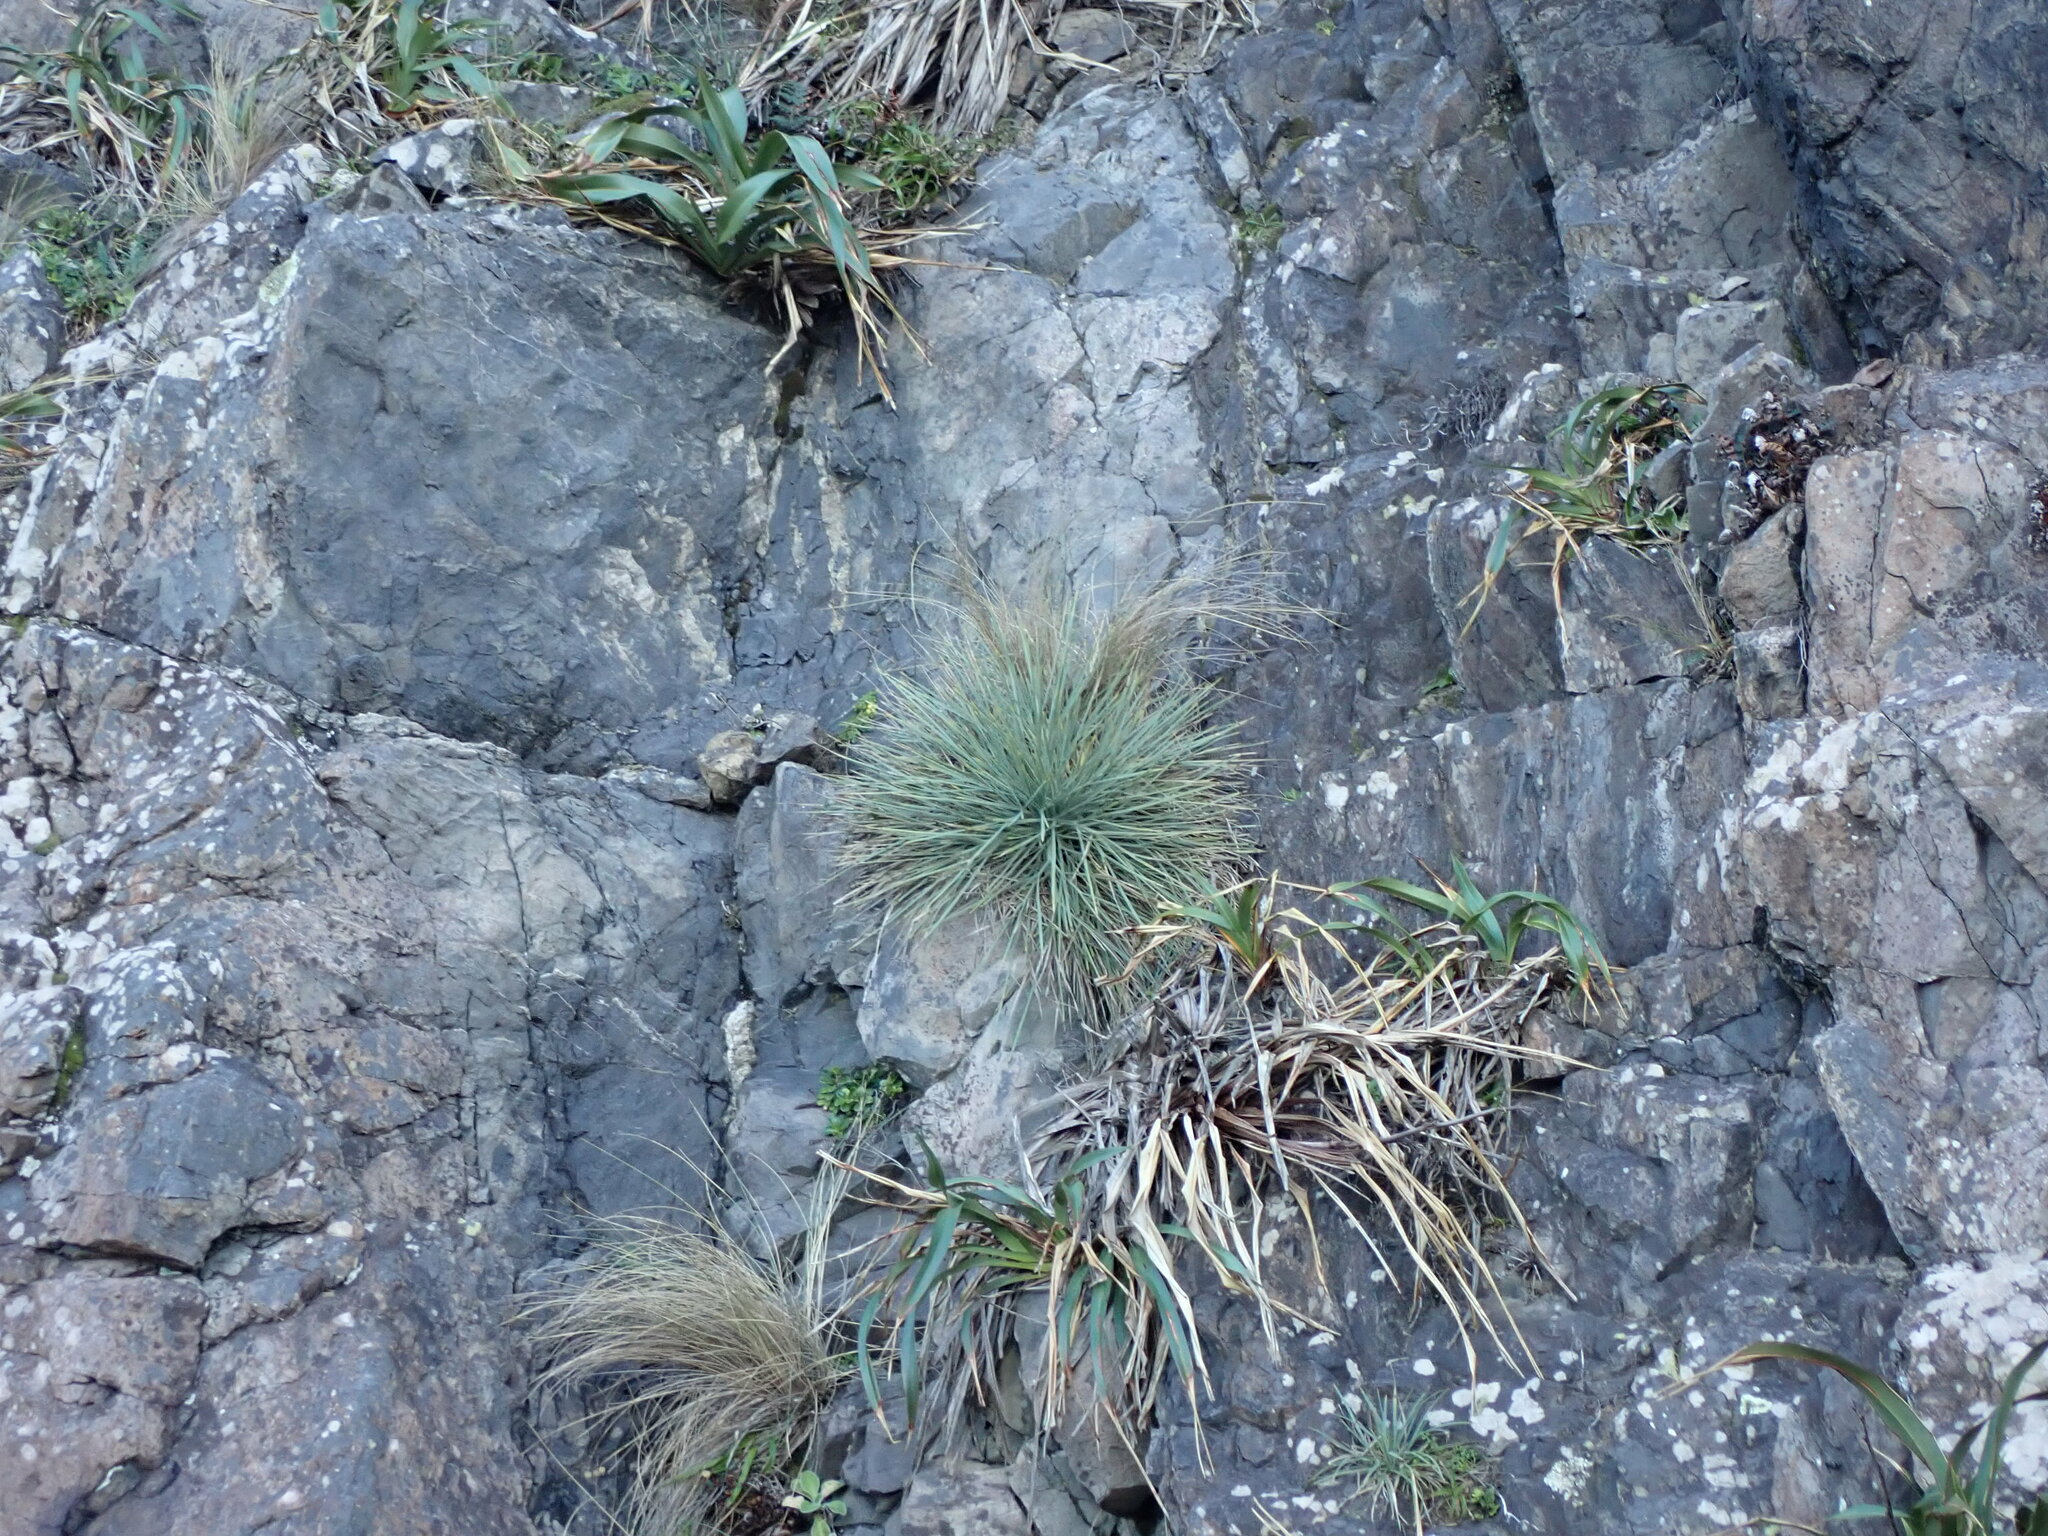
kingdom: Plantae
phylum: Tracheophyta
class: Magnoliopsida
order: Apiales
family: Apiaceae
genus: Aciphylla
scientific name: Aciphylla squarrosa
